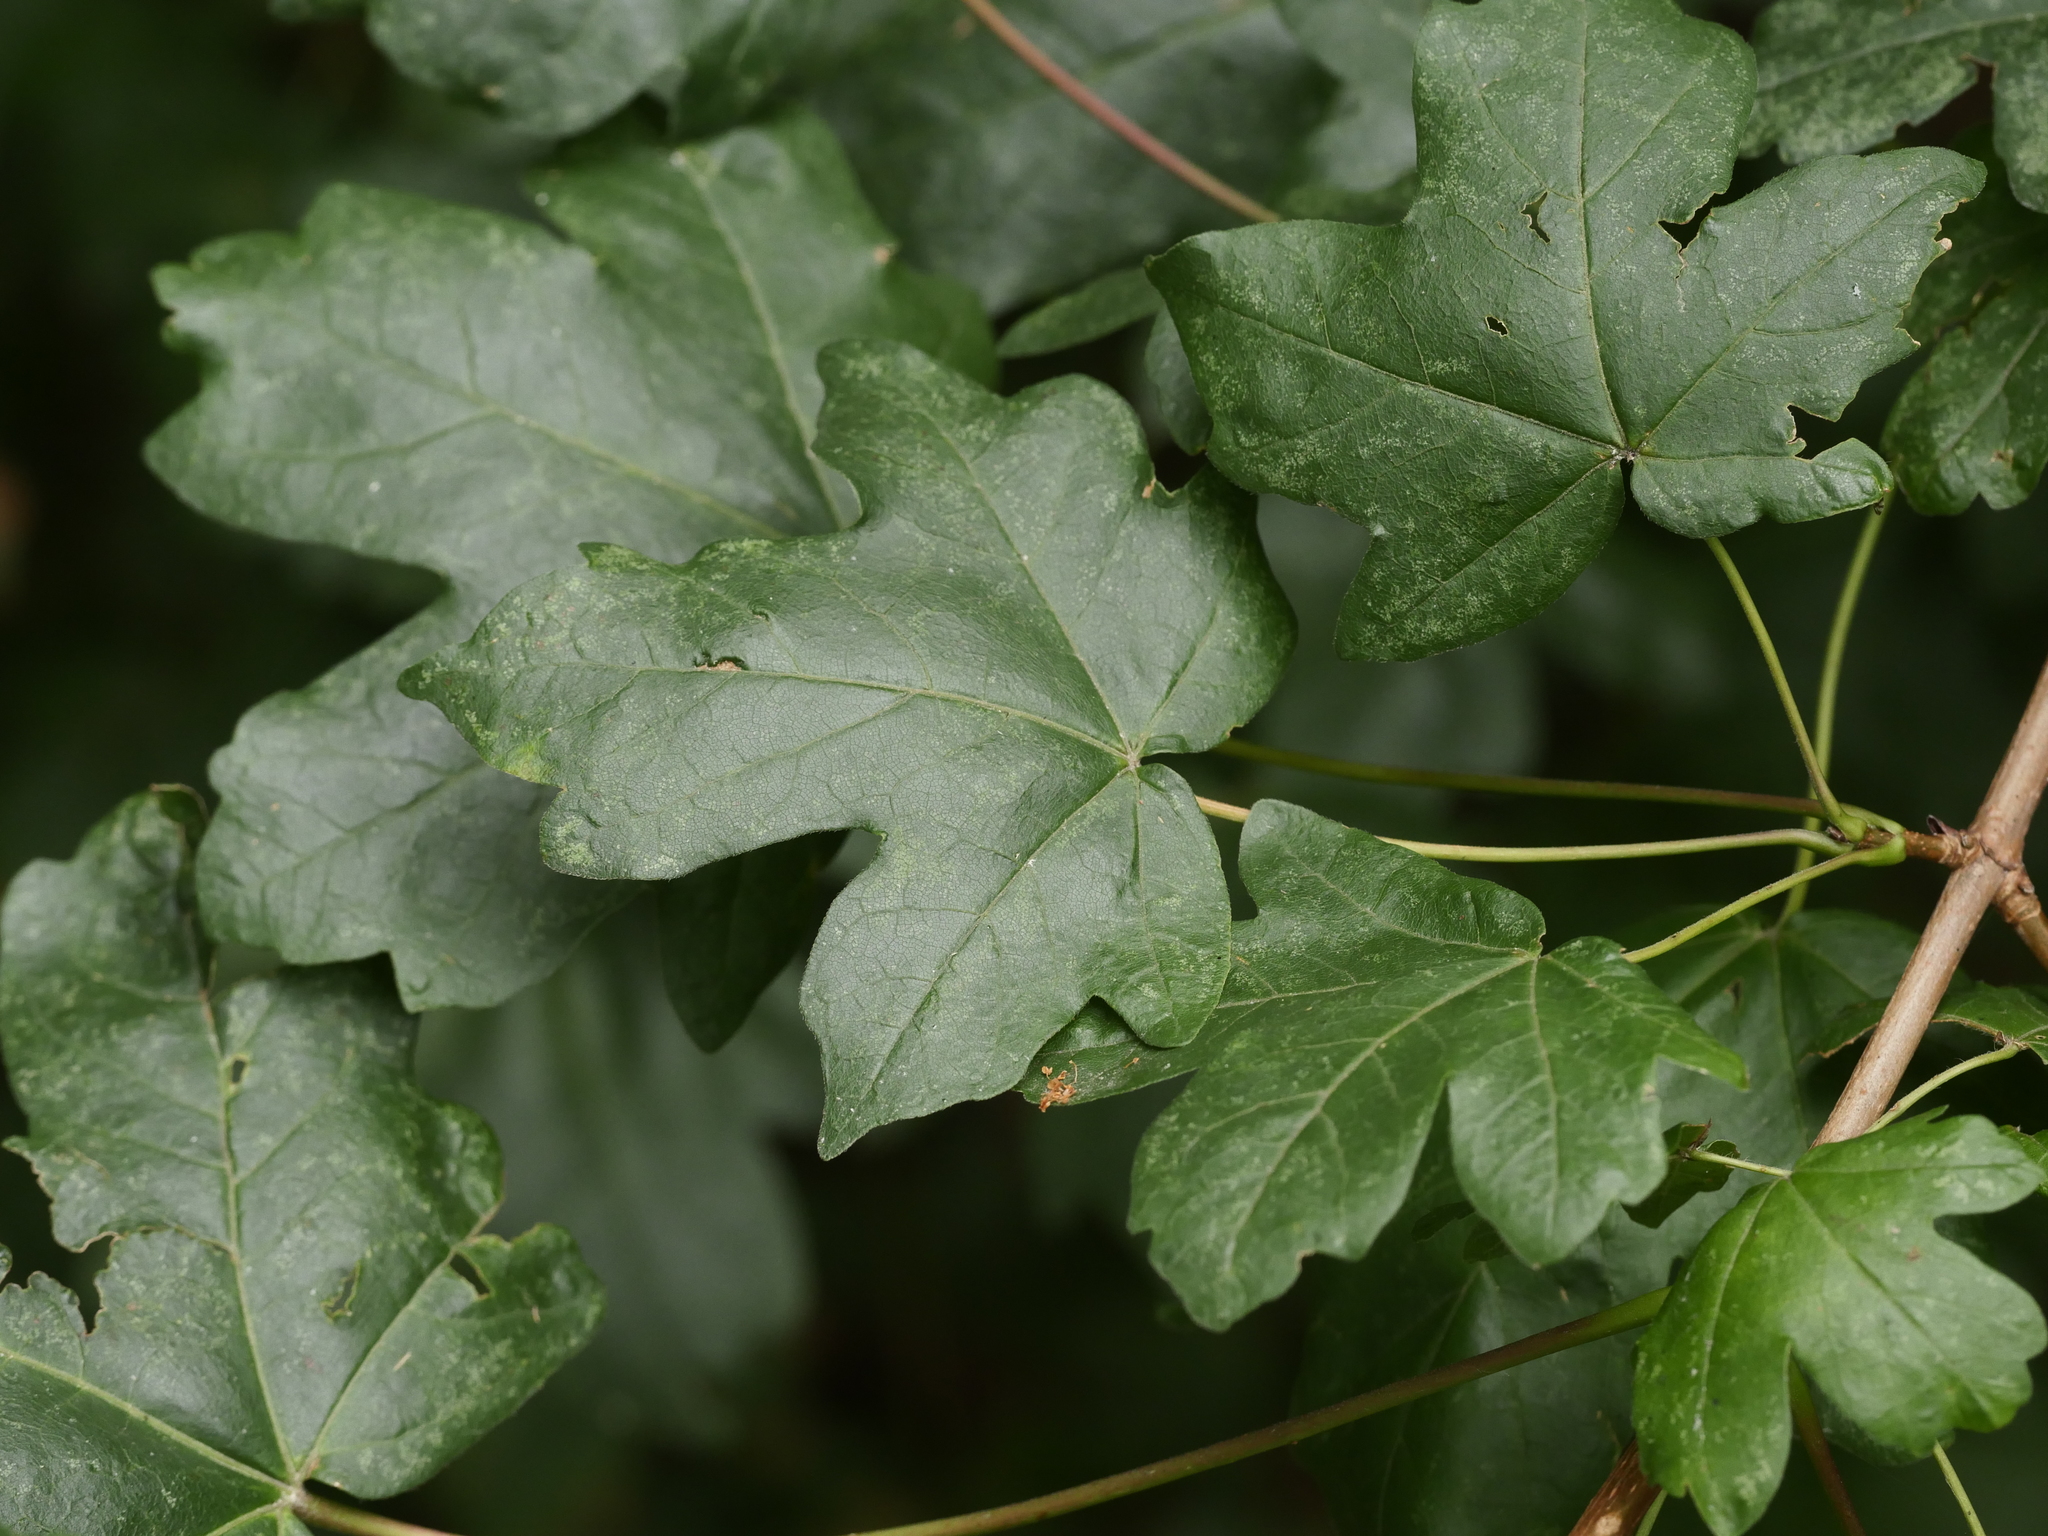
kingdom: Plantae
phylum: Tracheophyta
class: Magnoliopsida
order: Sapindales
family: Sapindaceae
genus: Acer
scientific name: Acer campestre
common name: Field maple
